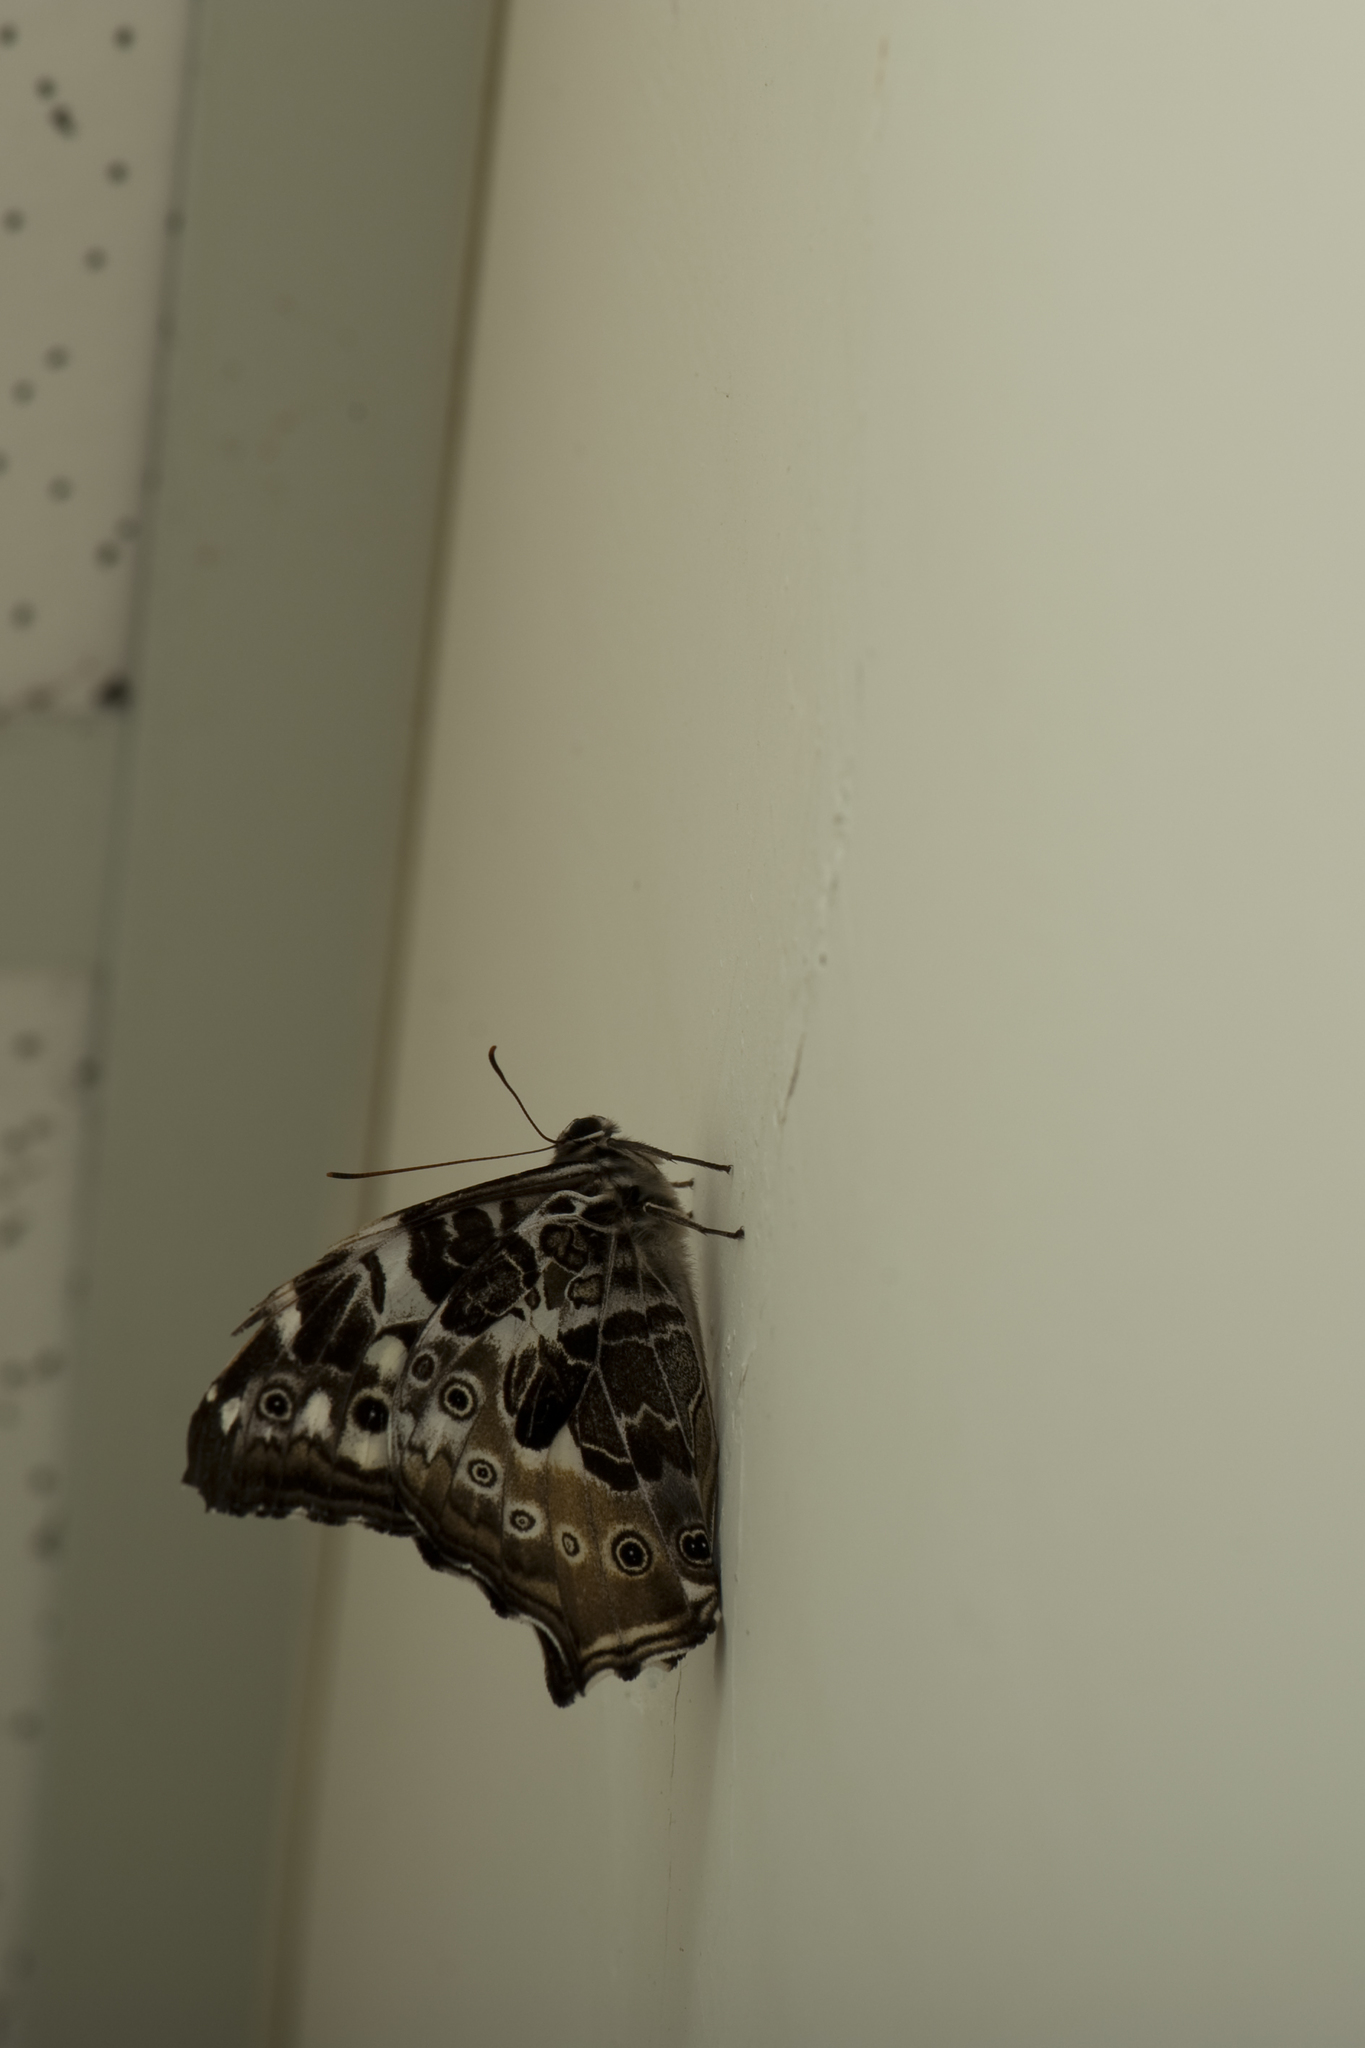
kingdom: Animalia
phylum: Arthropoda
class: Insecta
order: Lepidoptera
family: Nymphalidae
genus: Neope
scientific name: Neope armandii
